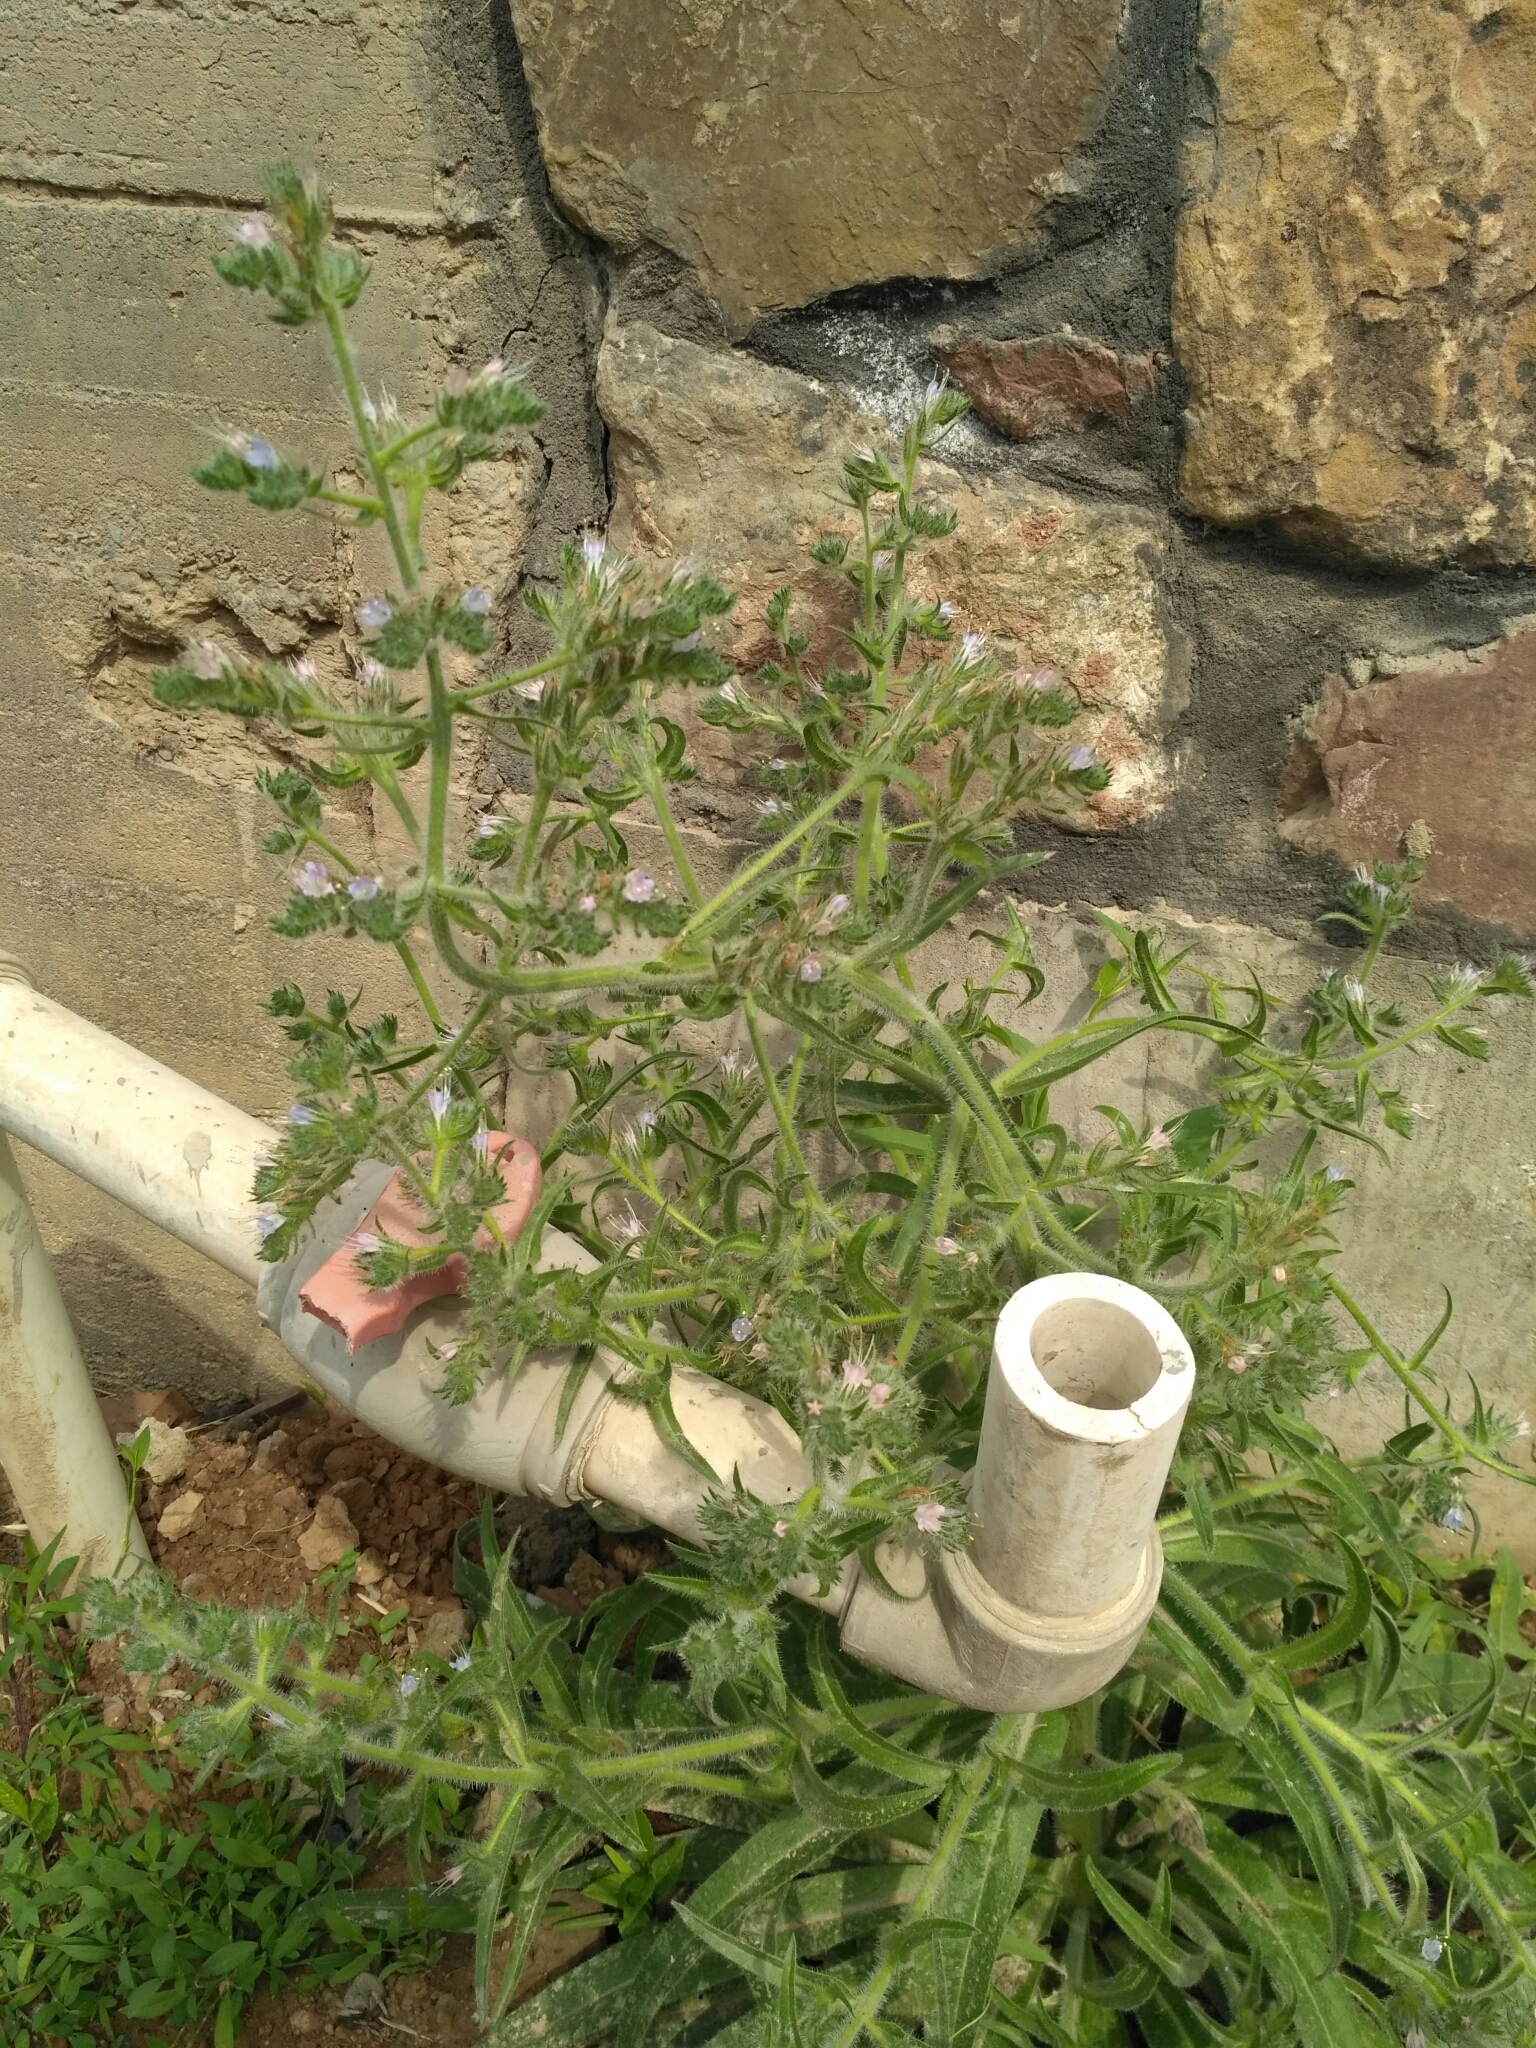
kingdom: Plantae
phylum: Tracheophyta
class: Magnoliopsida
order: Boraginales
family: Boraginaceae
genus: Echium
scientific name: Echium italicum
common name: Italian viper's bugloss
